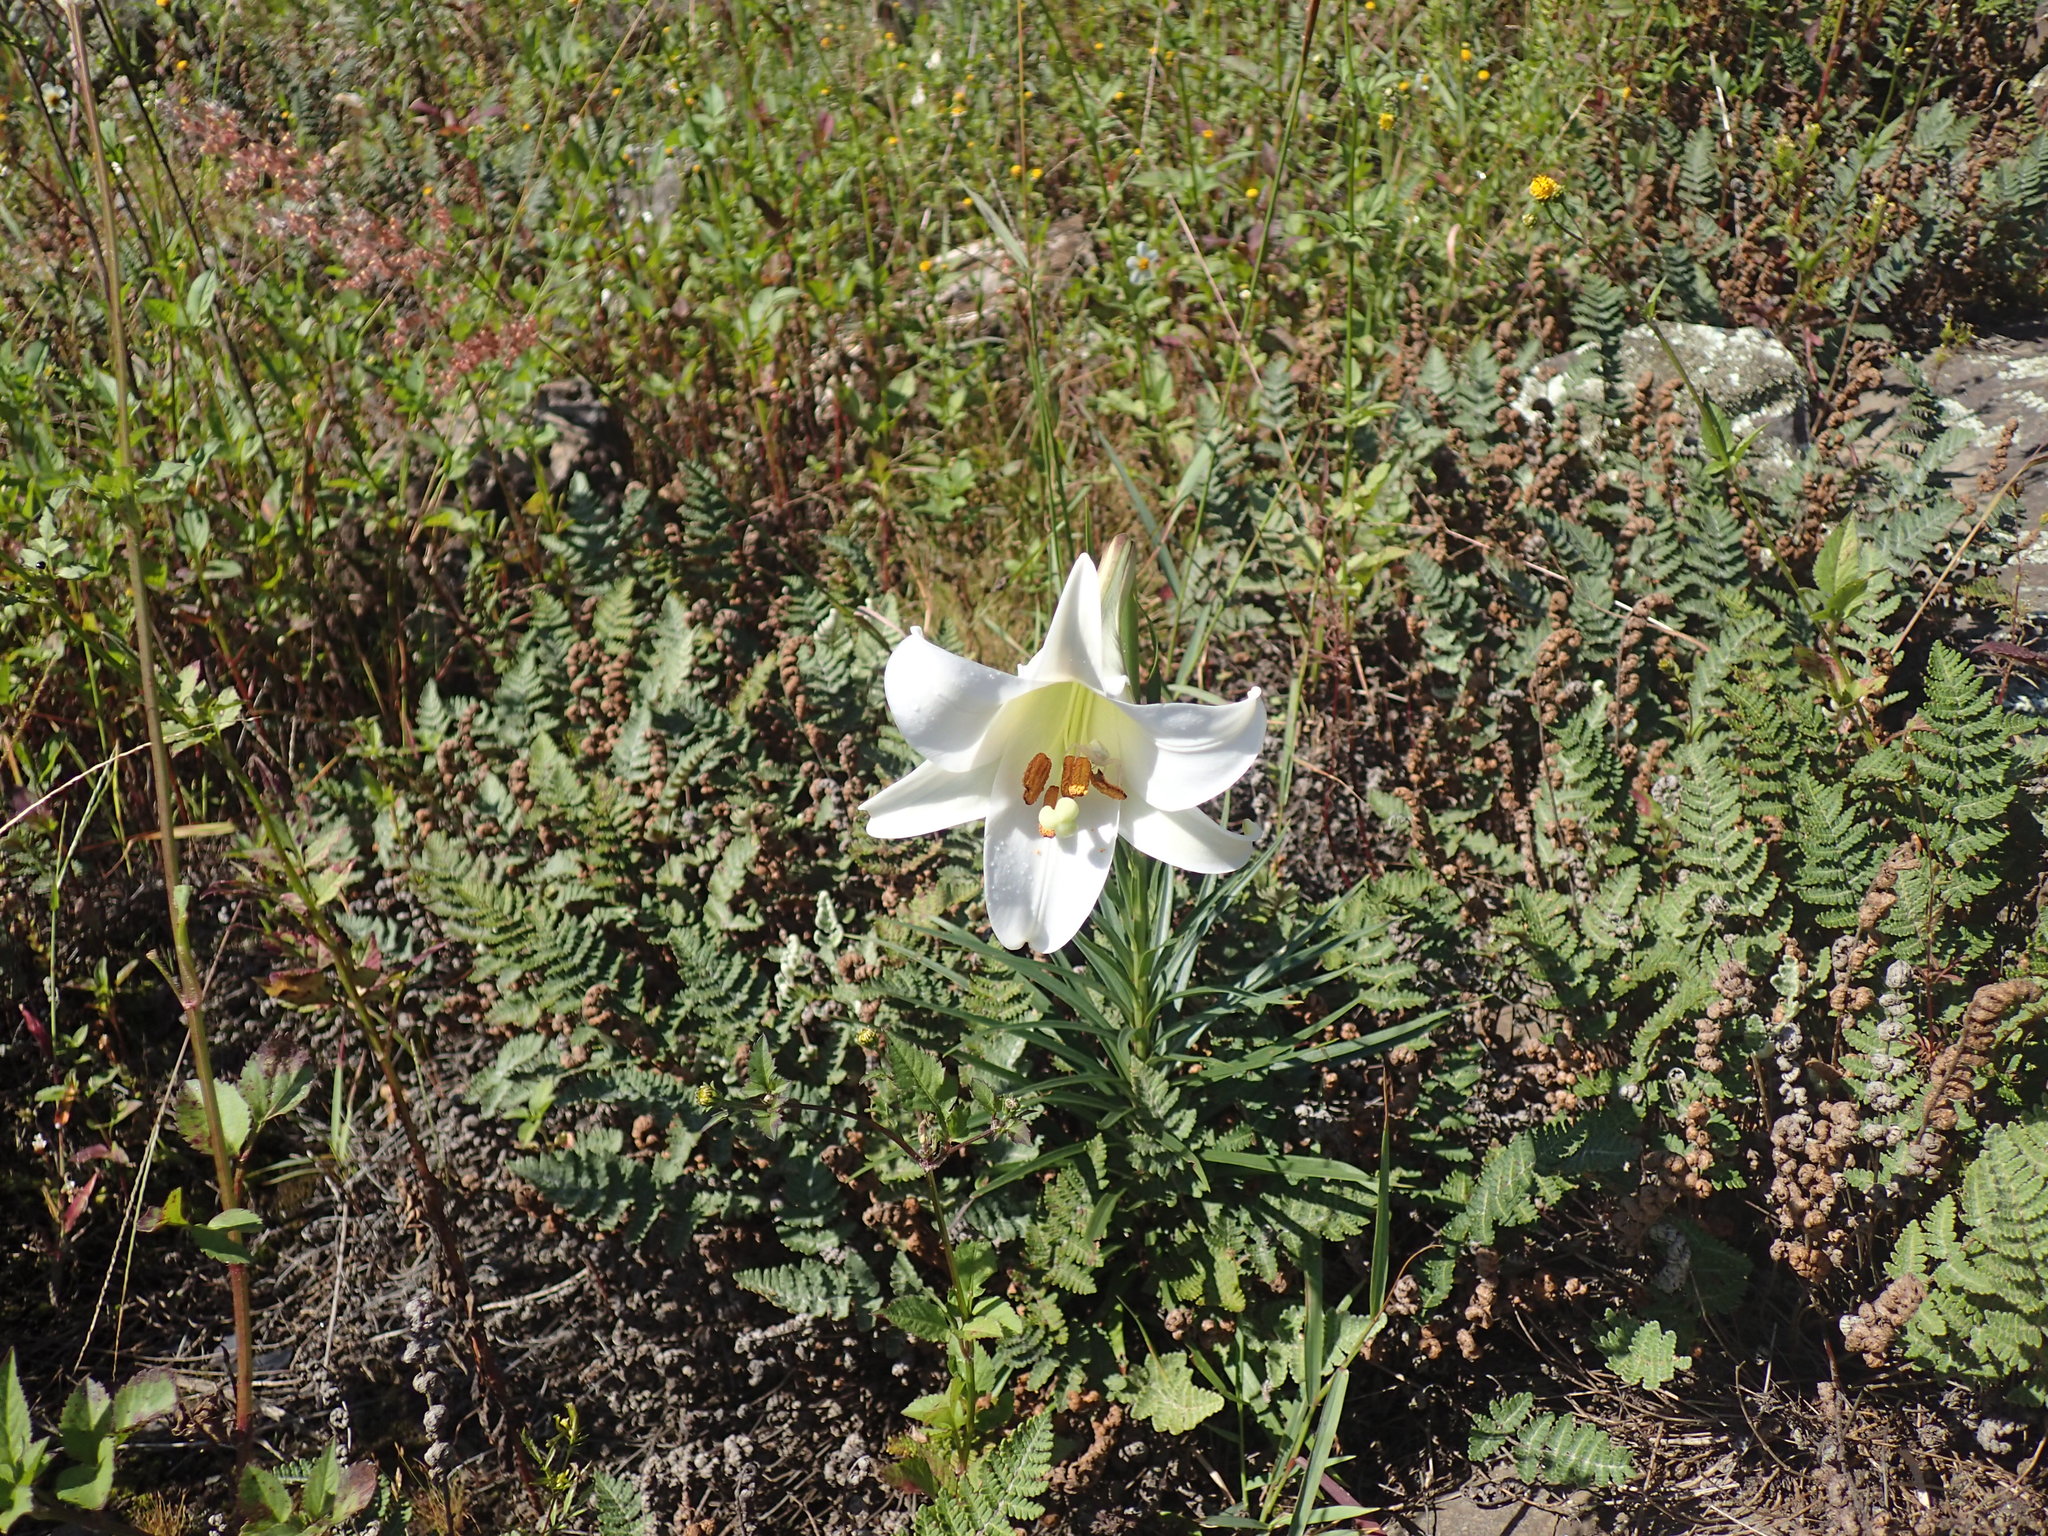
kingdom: Plantae
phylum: Tracheophyta
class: Liliopsida
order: Liliales
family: Liliaceae
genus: Lilium
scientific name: Lilium formosanum
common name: Formosa lily
